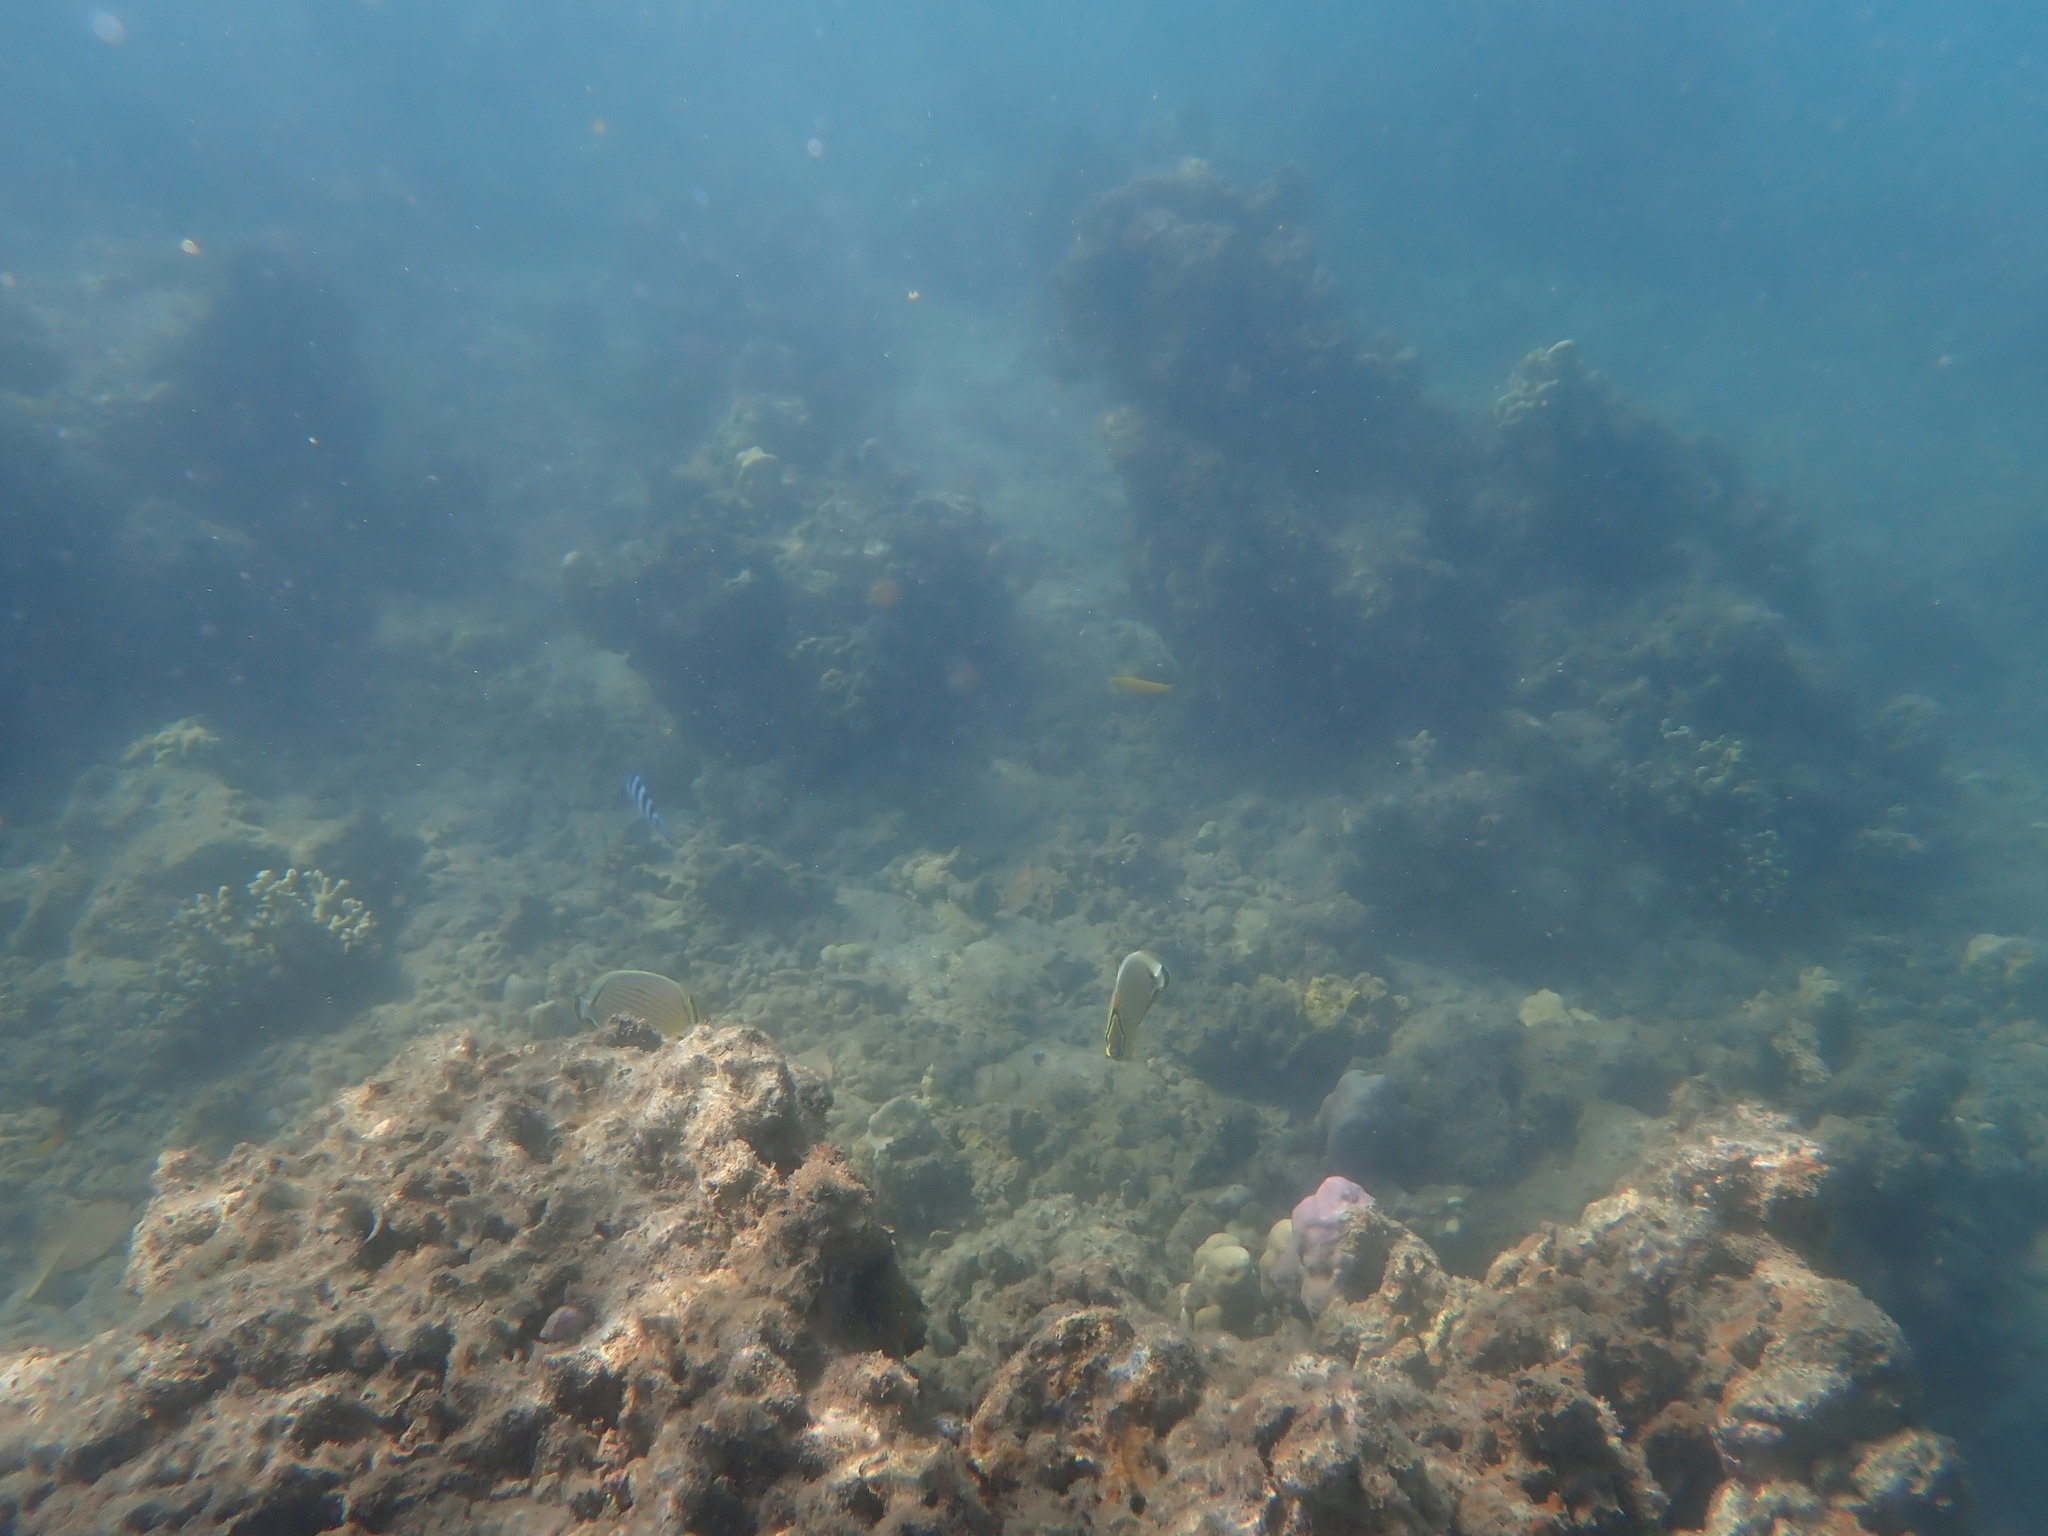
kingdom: Animalia
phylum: Chordata
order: Perciformes
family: Chaetodontidae
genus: Chaetodon
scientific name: Chaetodon lunulatus
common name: Redfin butterflyfish
